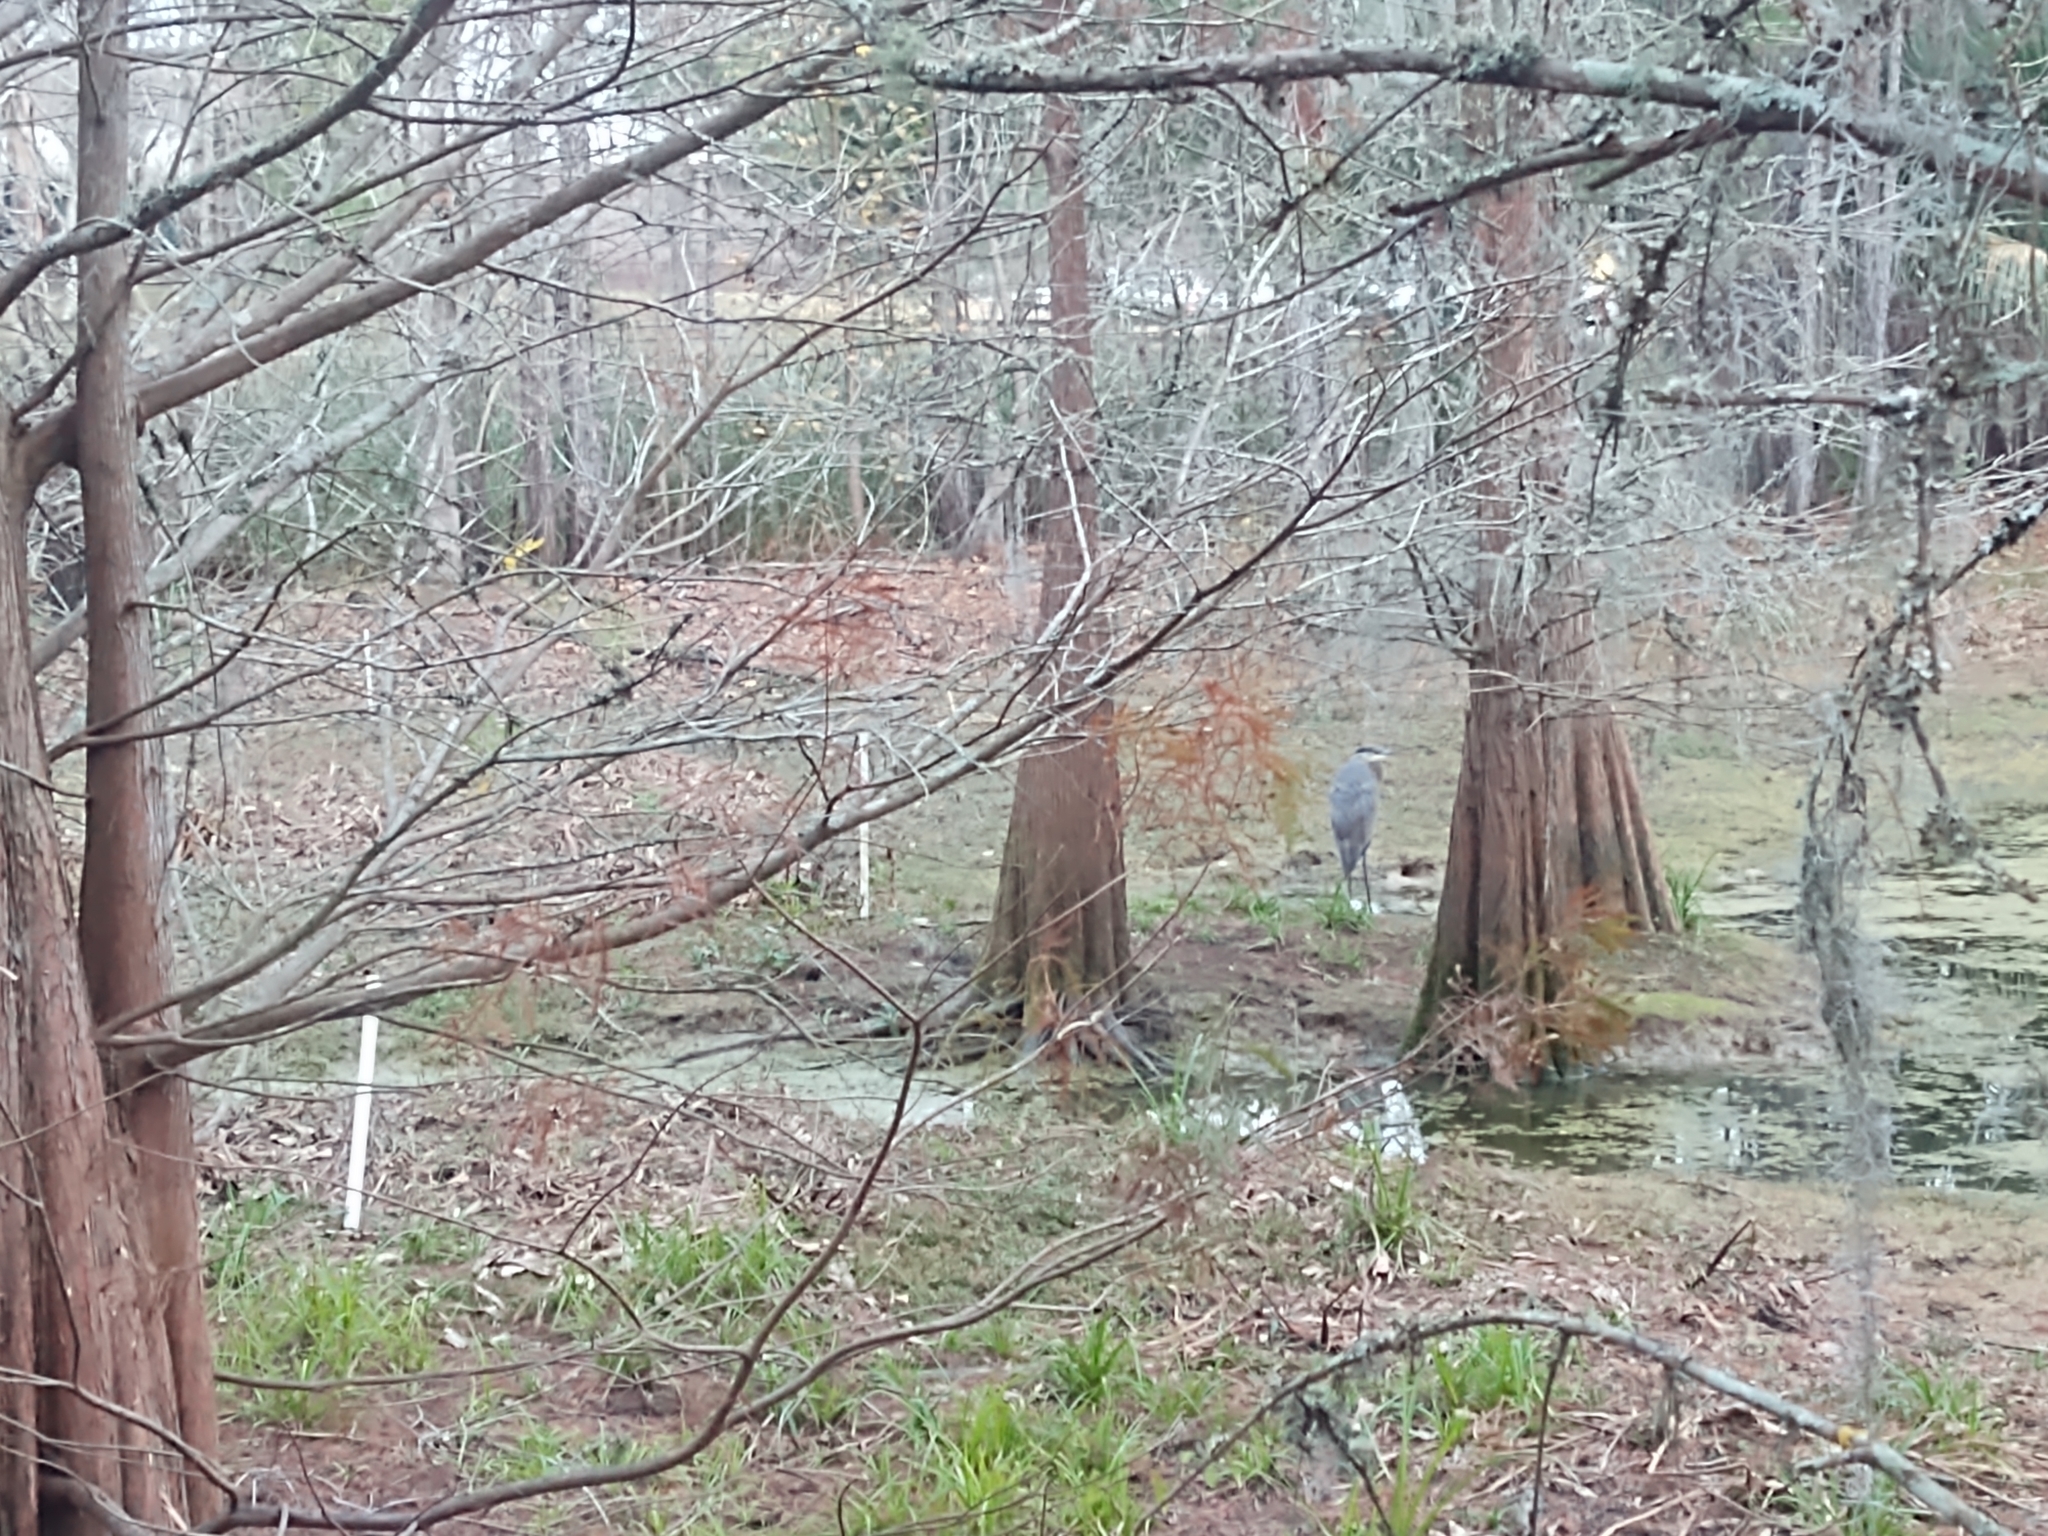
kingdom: Animalia
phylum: Chordata
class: Aves
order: Pelecaniformes
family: Ardeidae
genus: Ardea
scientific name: Ardea herodias
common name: Great blue heron
